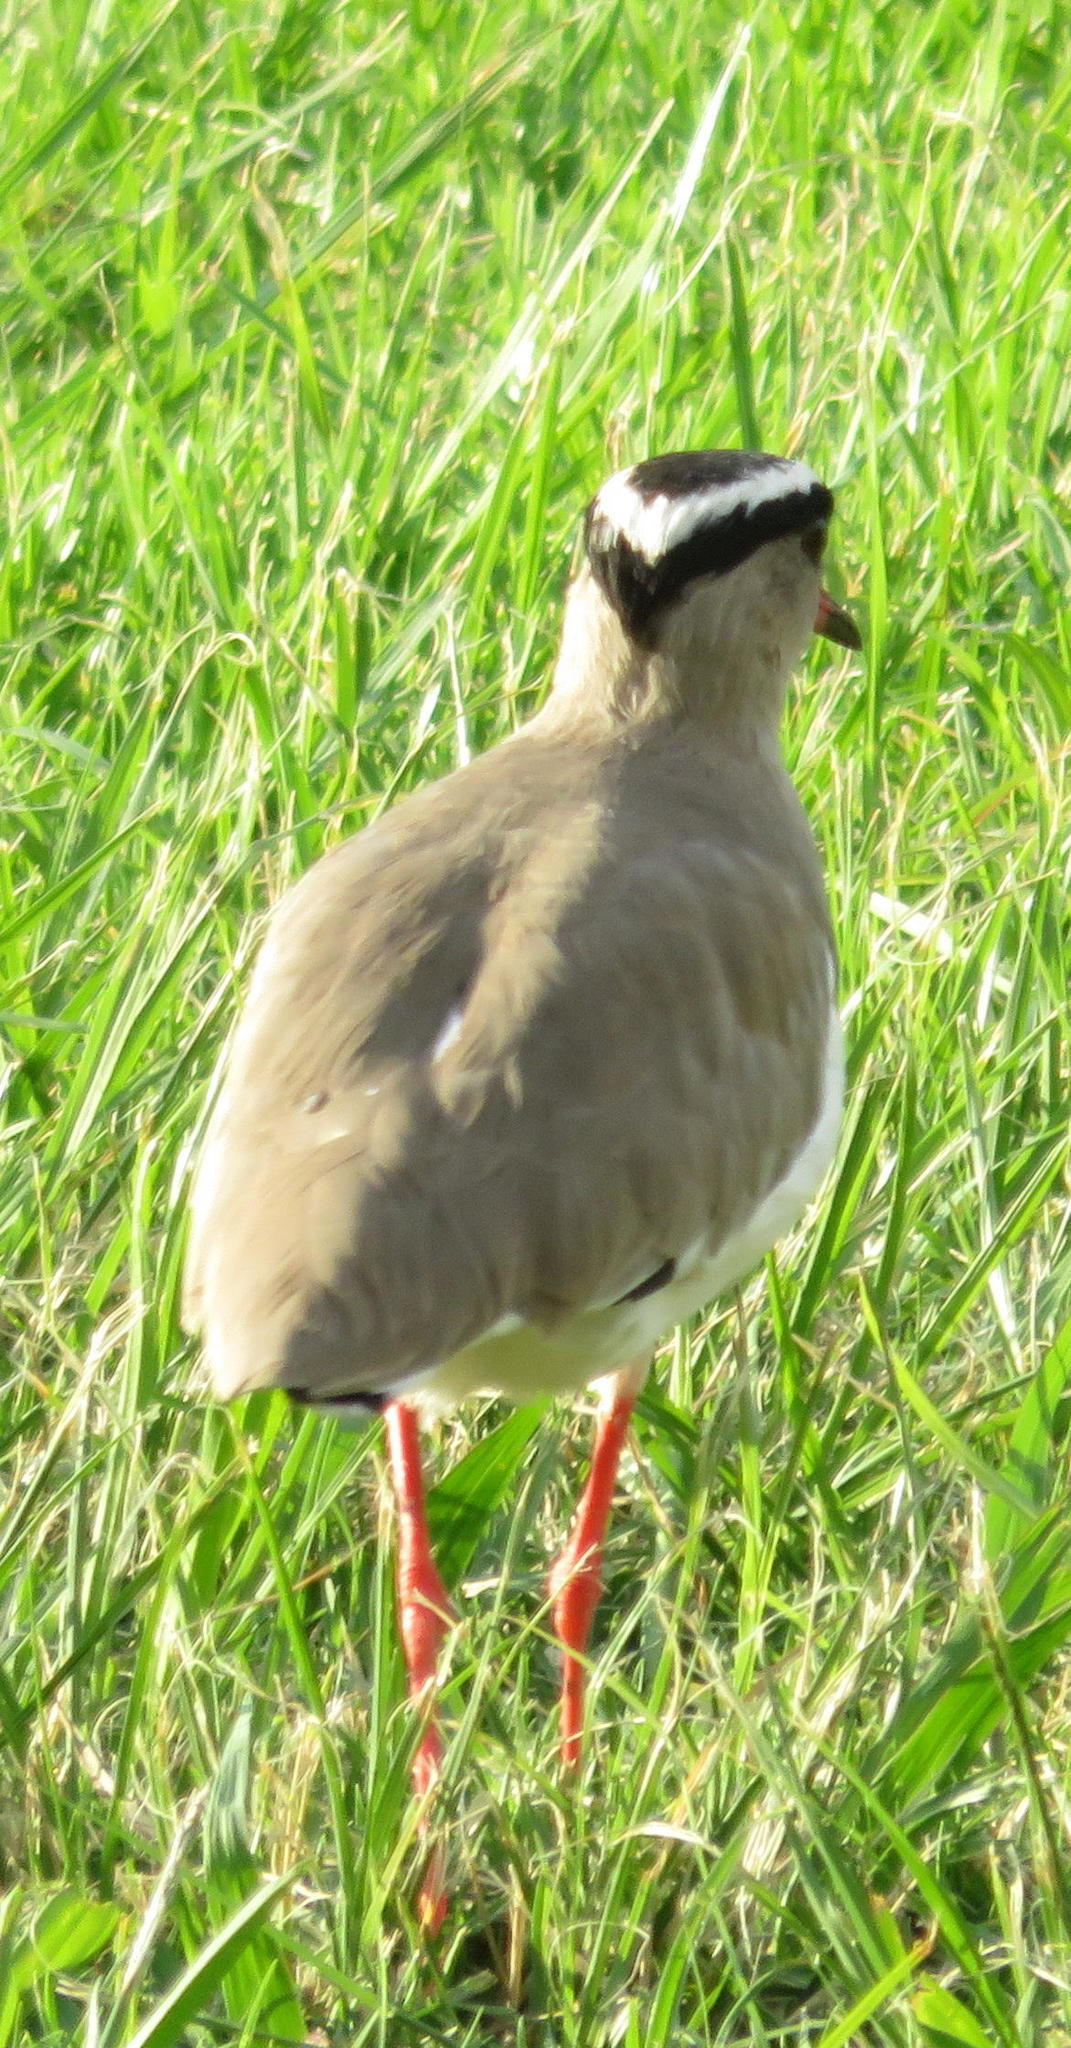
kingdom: Animalia
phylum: Chordata
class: Aves
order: Charadriiformes
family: Charadriidae
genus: Vanellus
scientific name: Vanellus coronatus
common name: Crowned lapwing
